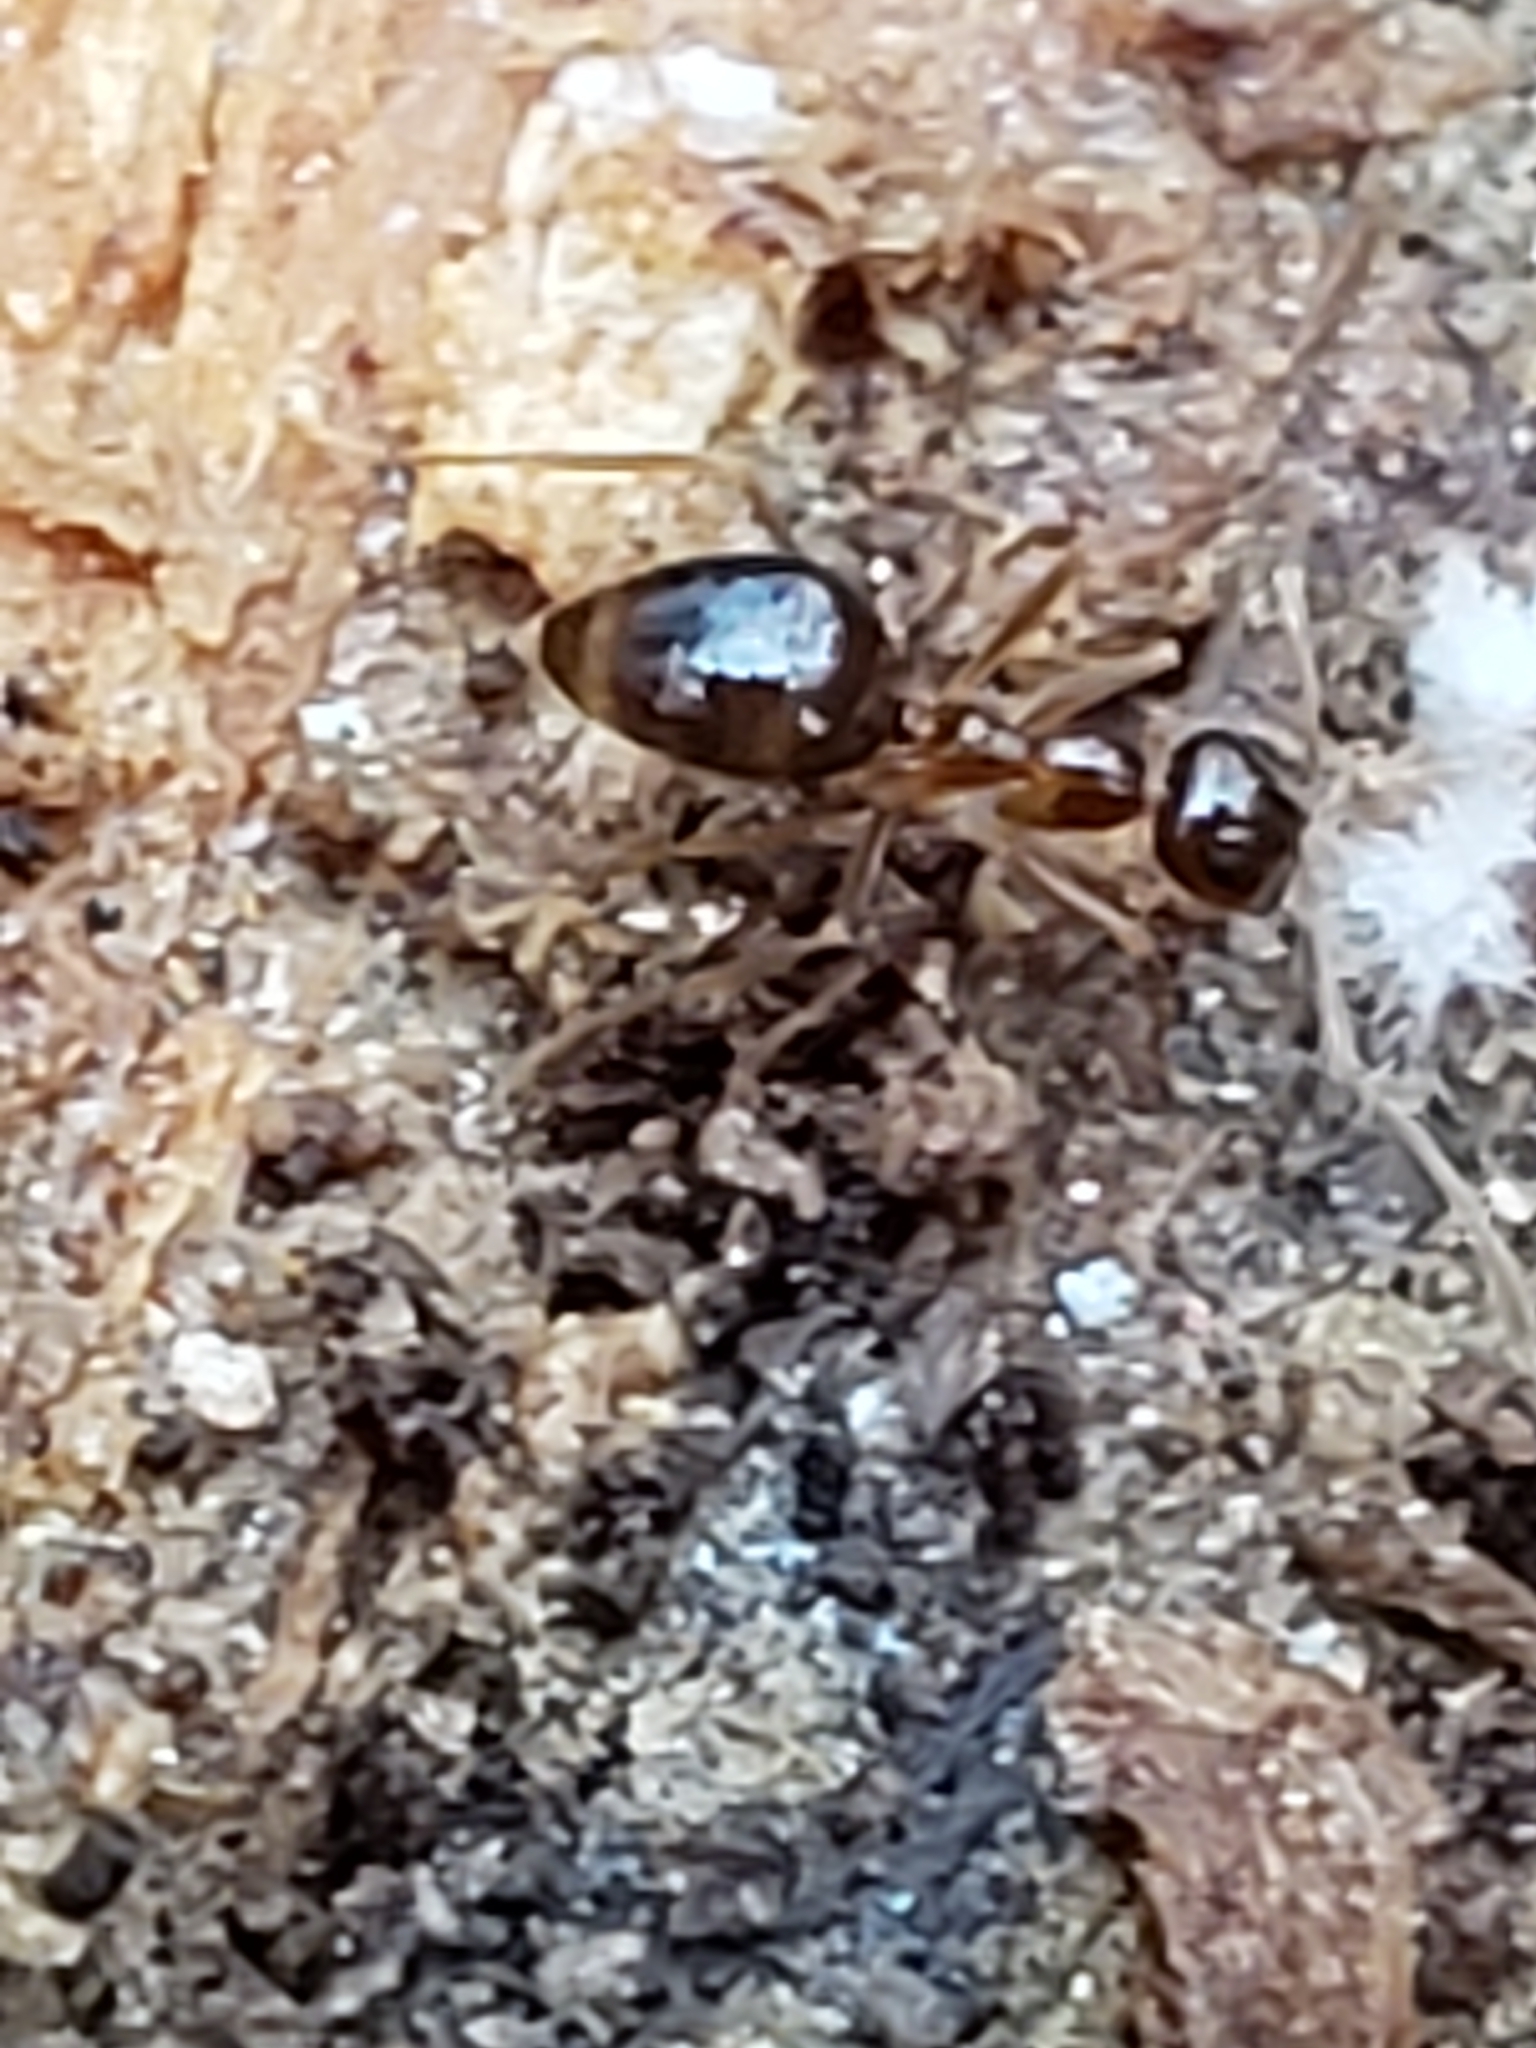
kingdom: Animalia
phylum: Arthropoda
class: Insecta
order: Hymenoptera
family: Formicidae
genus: Prenolepis
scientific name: Prenolepis imparis
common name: Small honey ant
